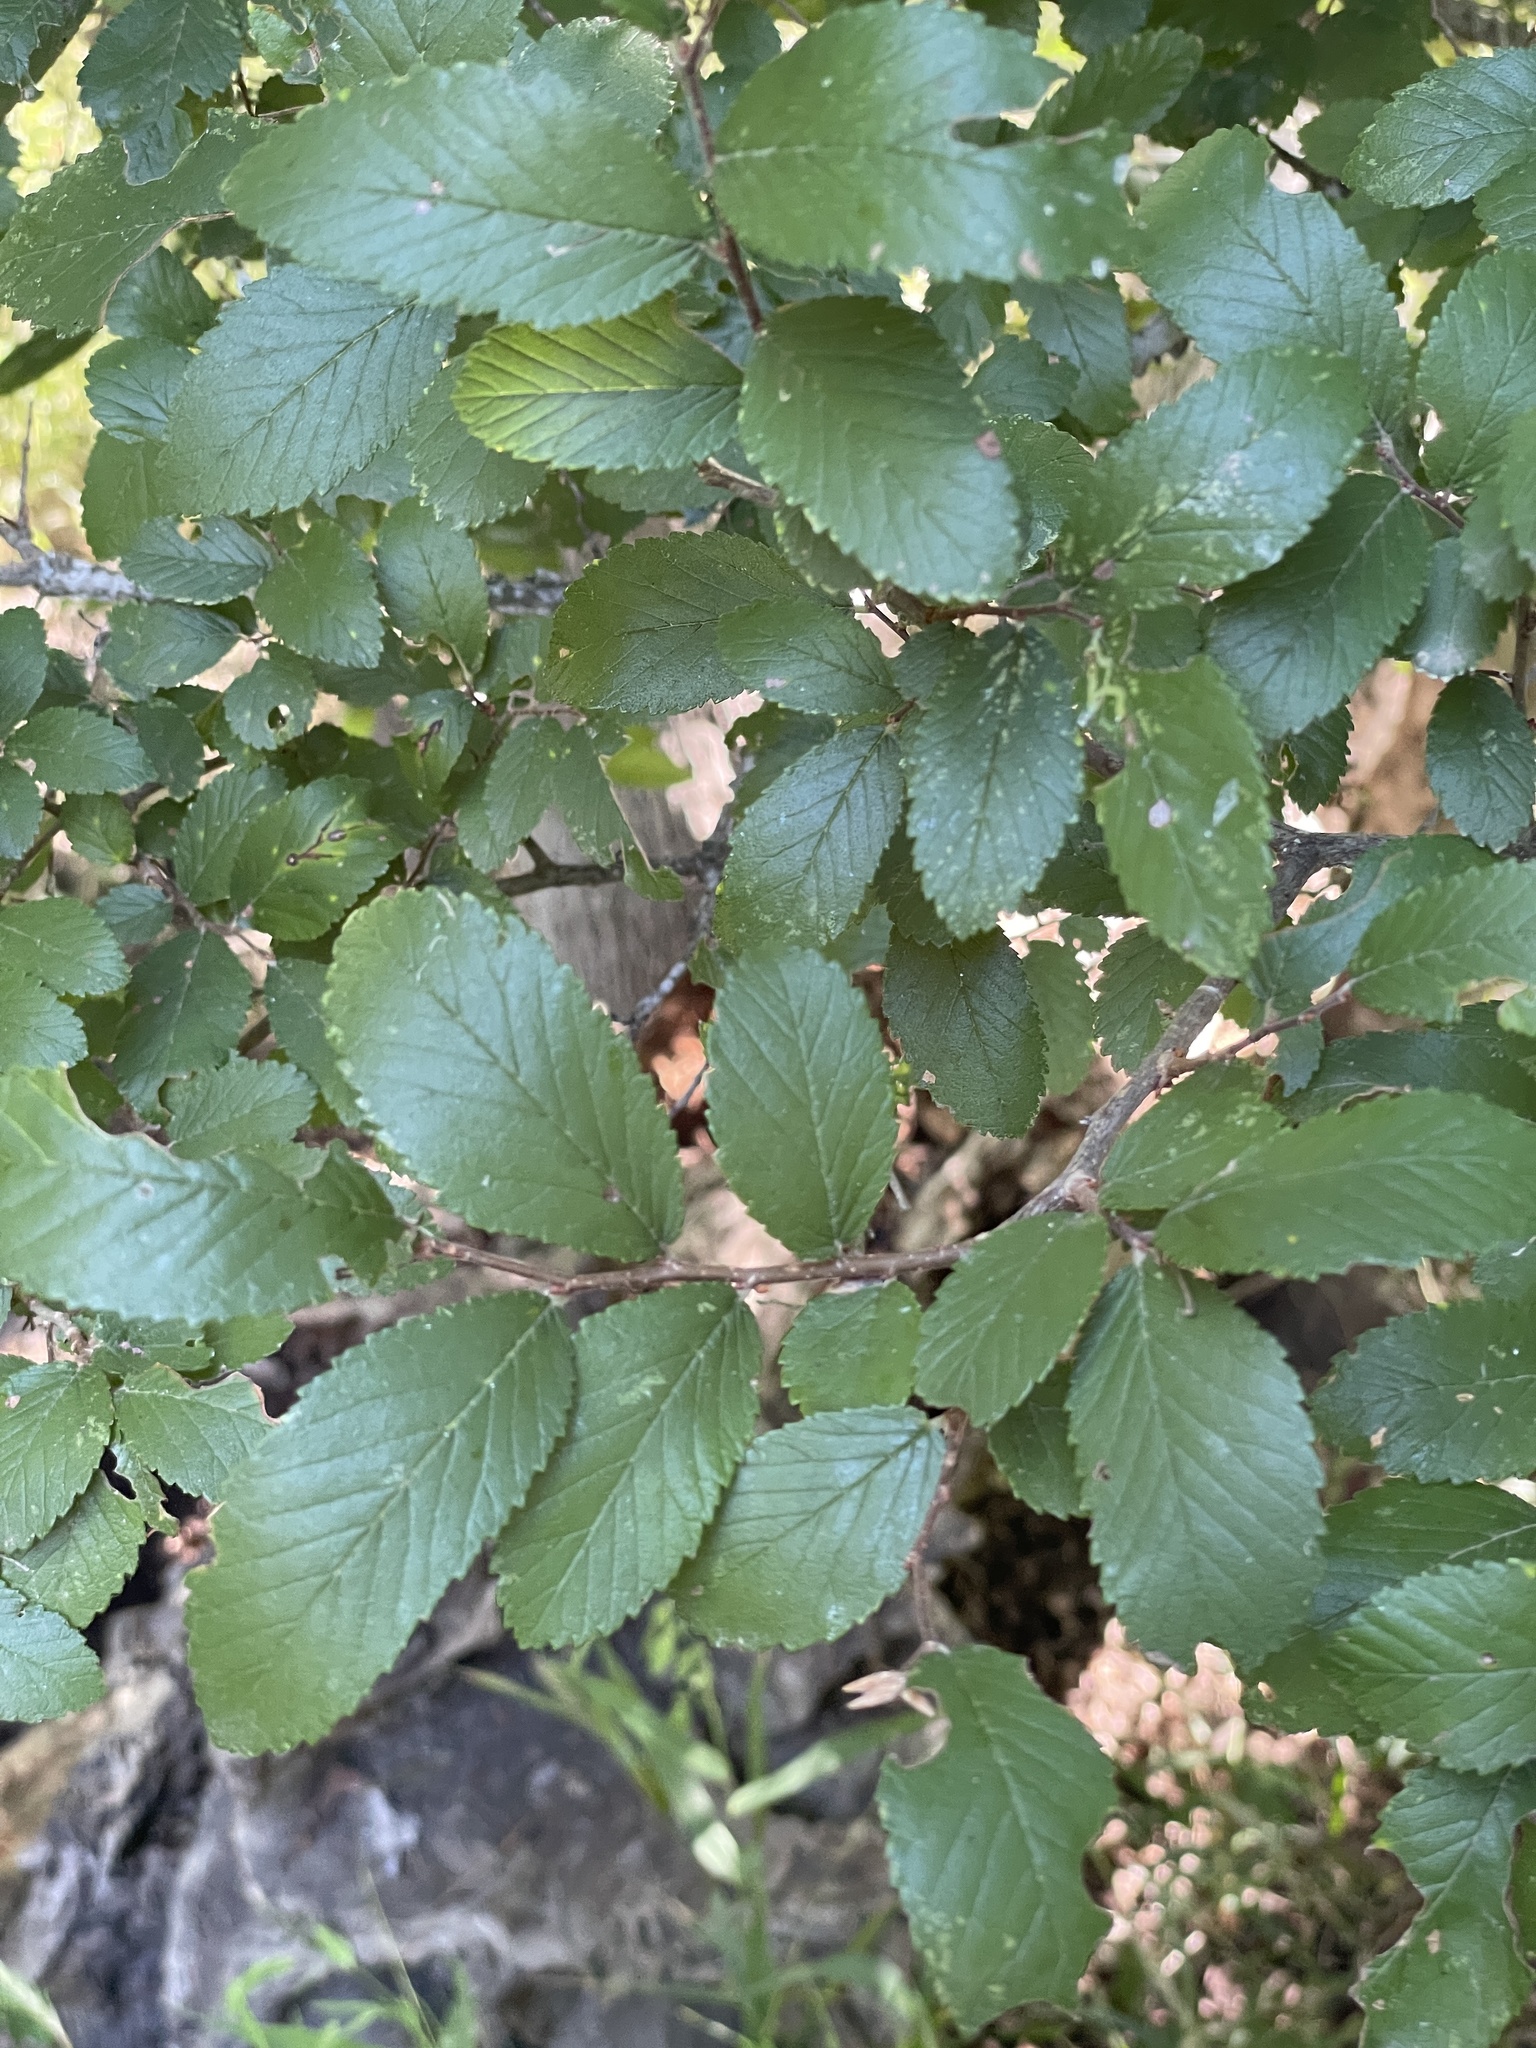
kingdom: Plantae
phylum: Tracheophyta
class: Magnoliopsida
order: Rosales
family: Ulmaceae
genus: Ulmus
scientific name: Ulmus crassifolia
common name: Basket elm
